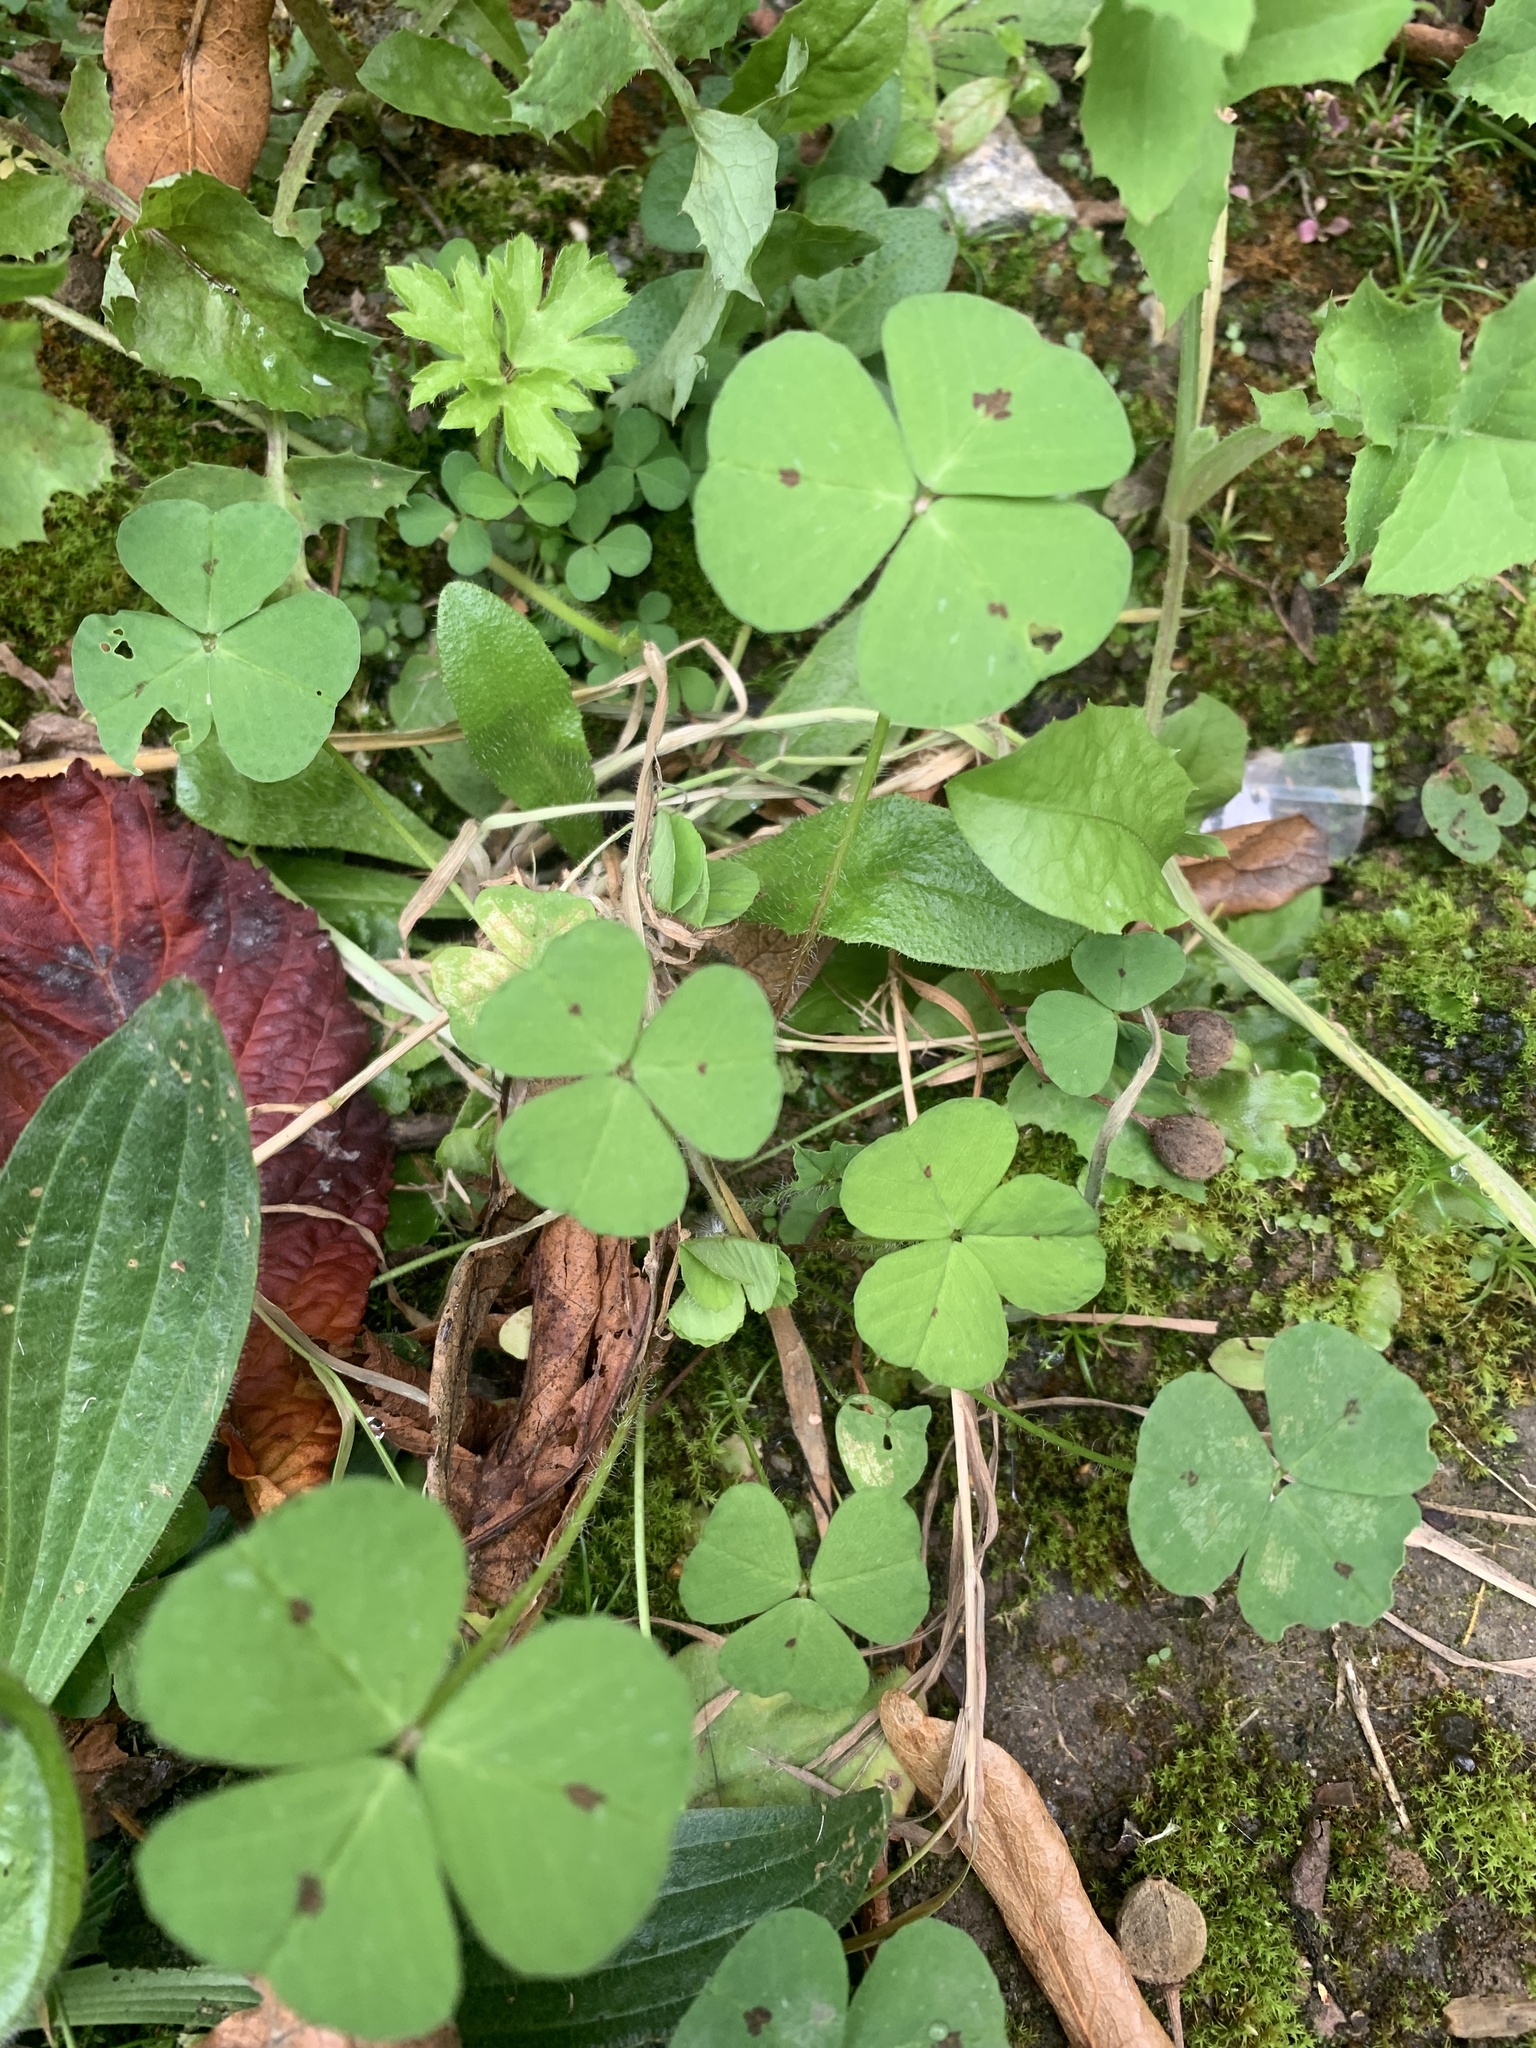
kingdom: Plantae
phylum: Tracheophyta
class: Magnoliopsida
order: Fabales
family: Fabaceae
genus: Medicago
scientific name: Medicago arabica
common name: Spotted medick
